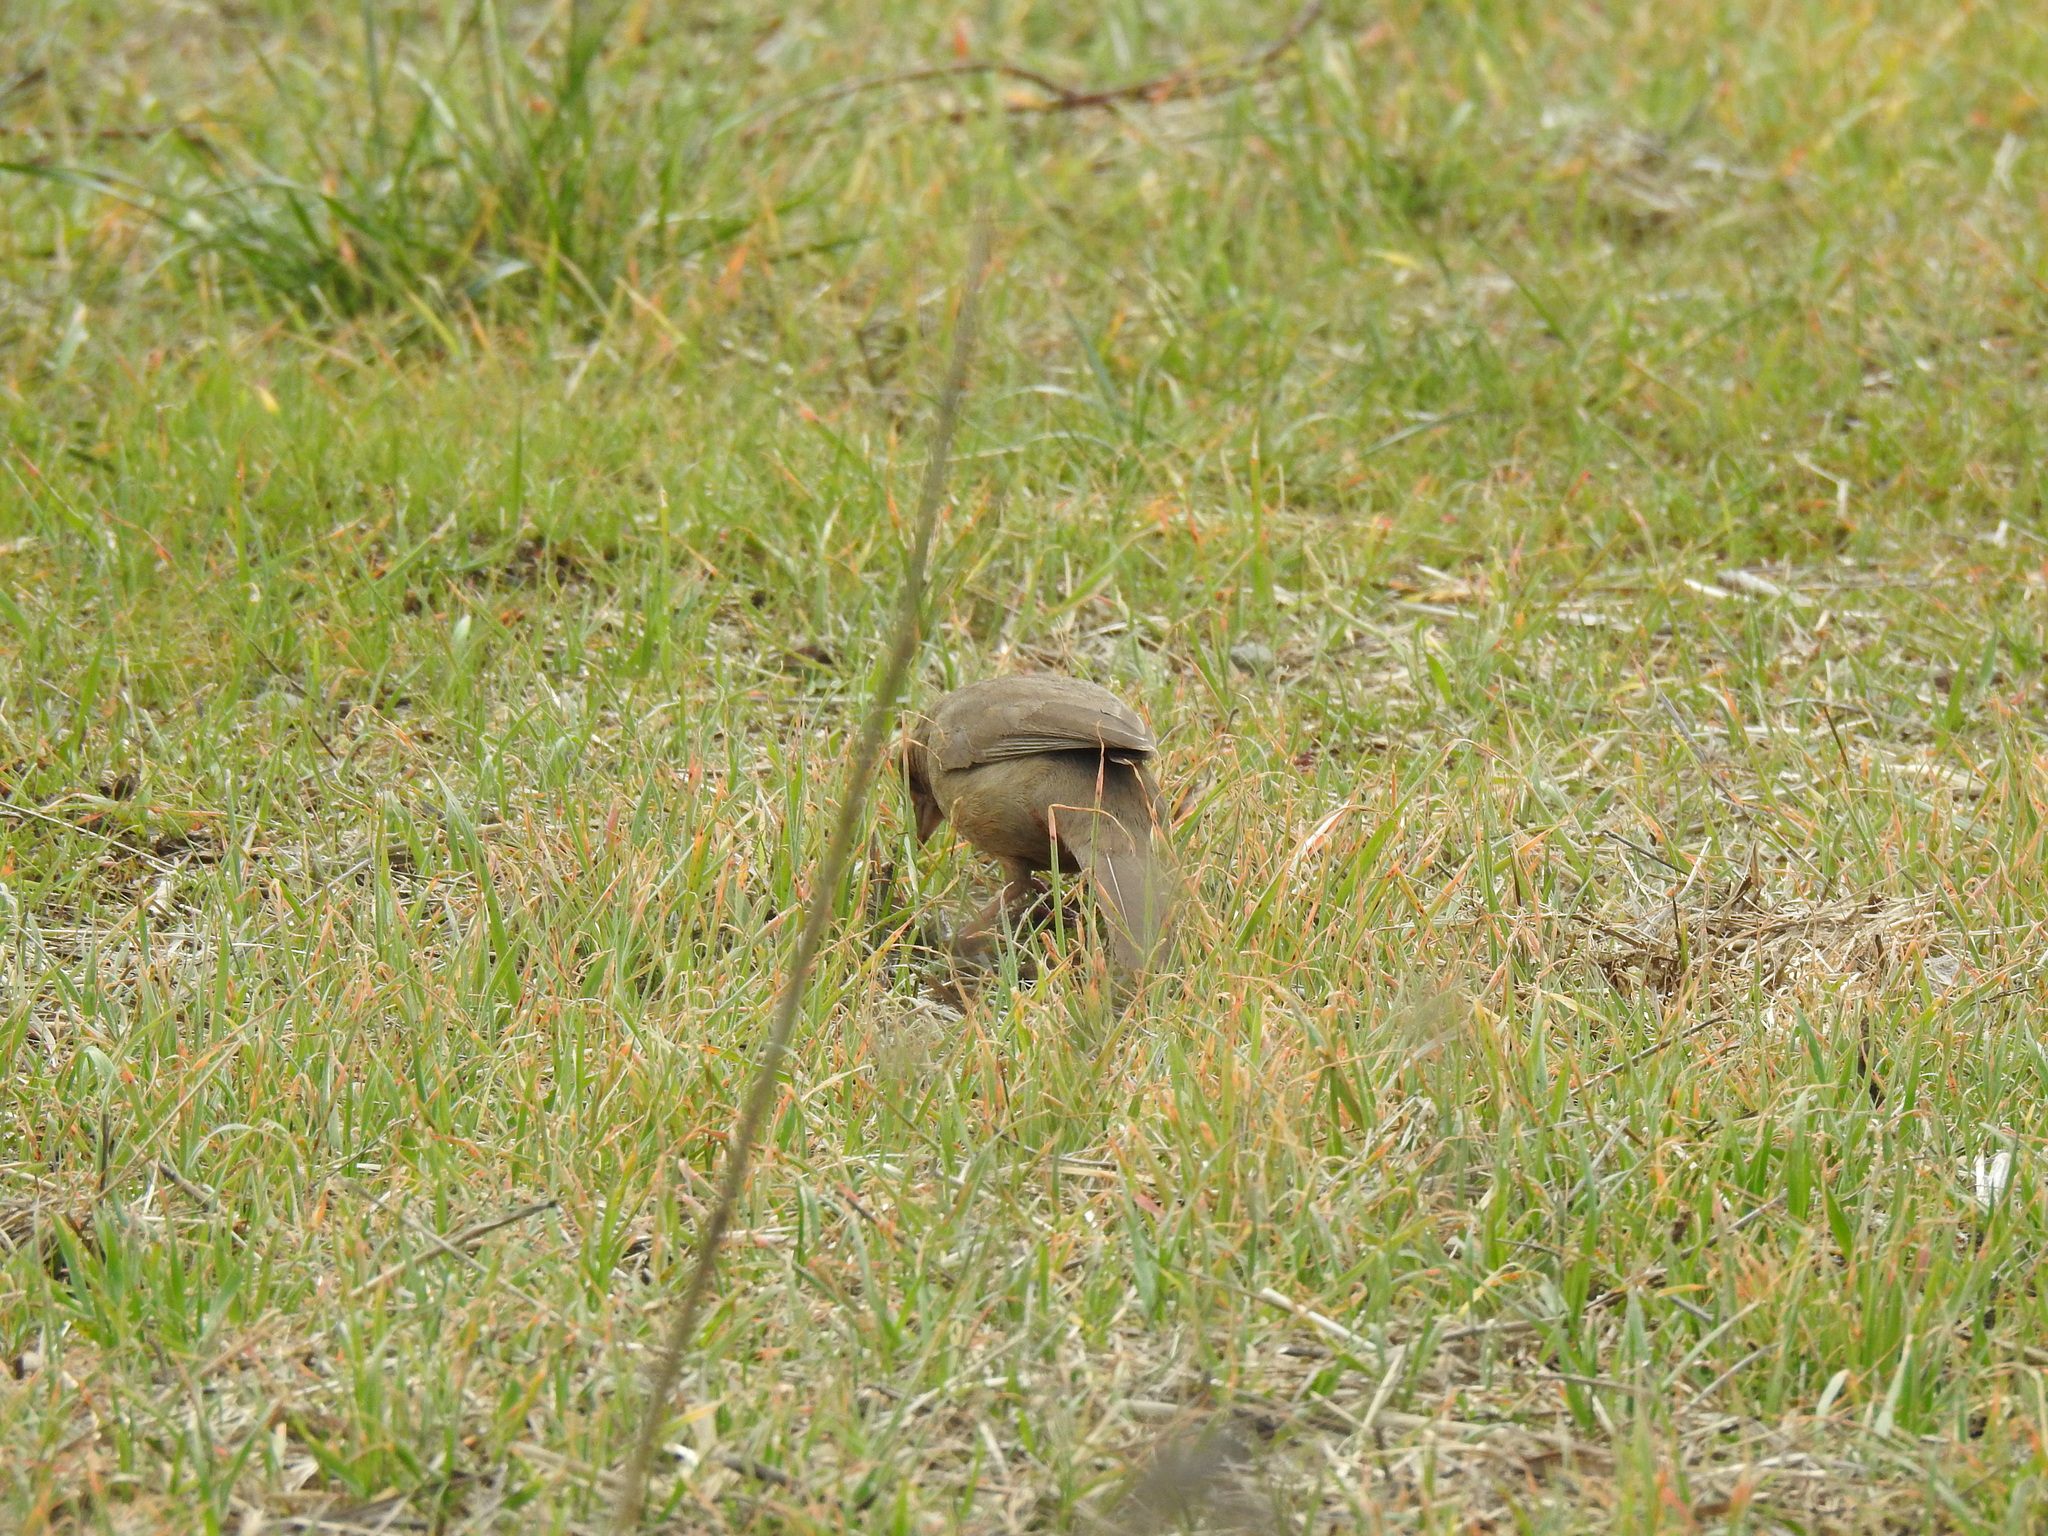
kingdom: Animalia
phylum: Chordata
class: Aves
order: Passeriformes
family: Passerellidae
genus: Melozone
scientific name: Melozone crissalis
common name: California towhee
